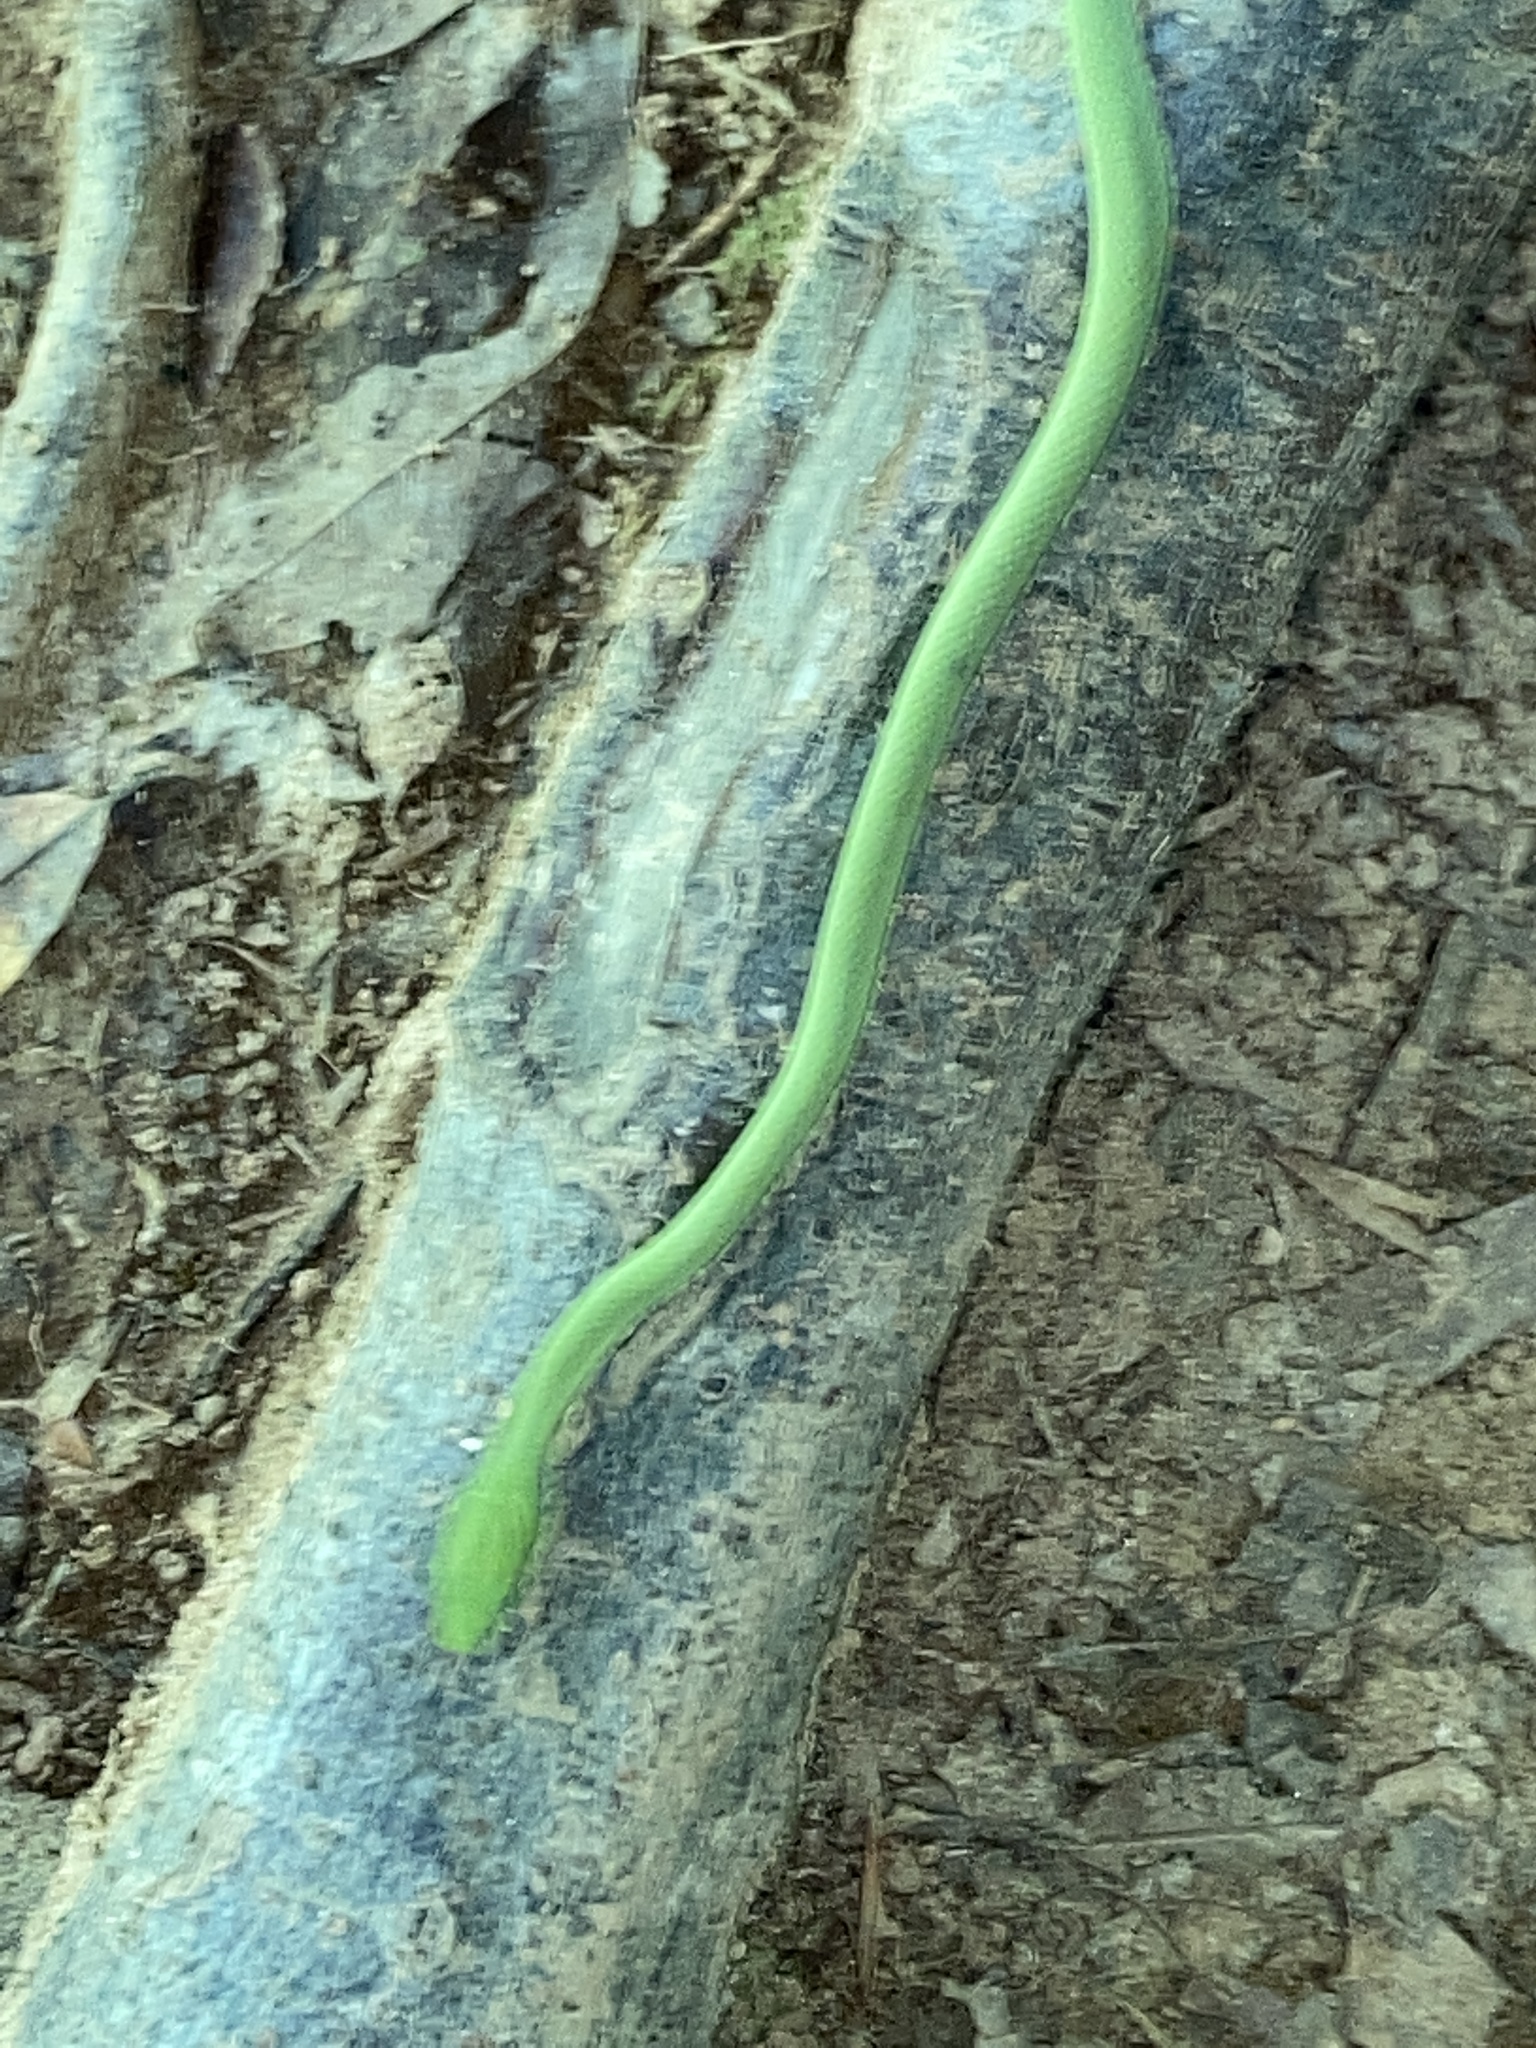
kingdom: Animalia
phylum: Chordata
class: Squamata
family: Colubridae
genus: Opheodrys
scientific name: Opheodrys aestivus
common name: Rough greensnake
